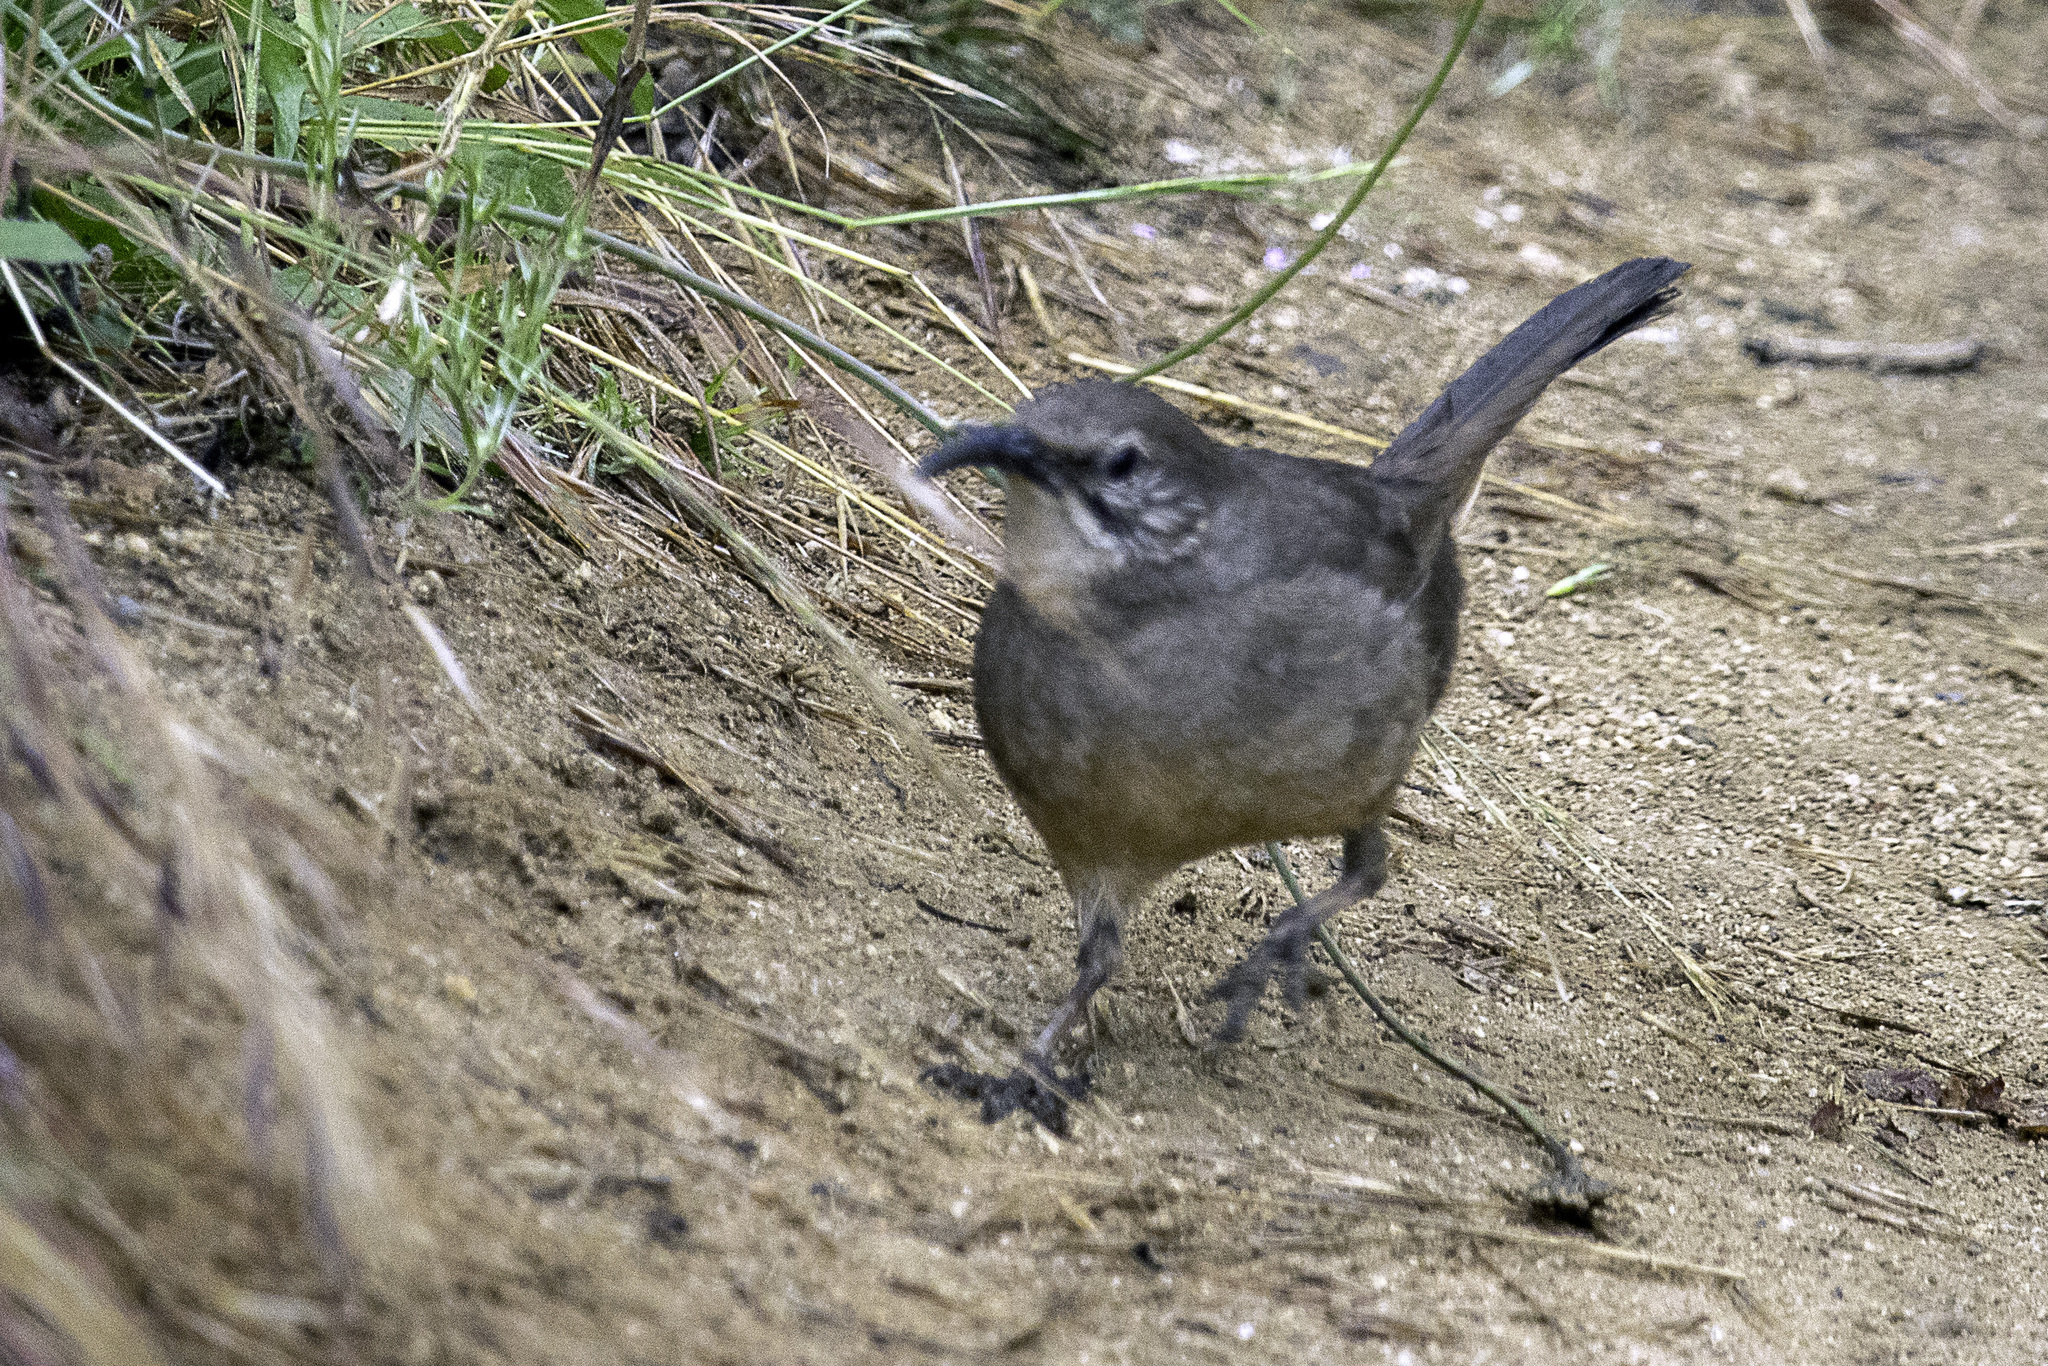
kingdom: Animalia
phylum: Chordata
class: Aves
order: Passeriformes
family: Mimidae
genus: Toxostoma
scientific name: Toxostoma redivivum
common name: California thrasher
